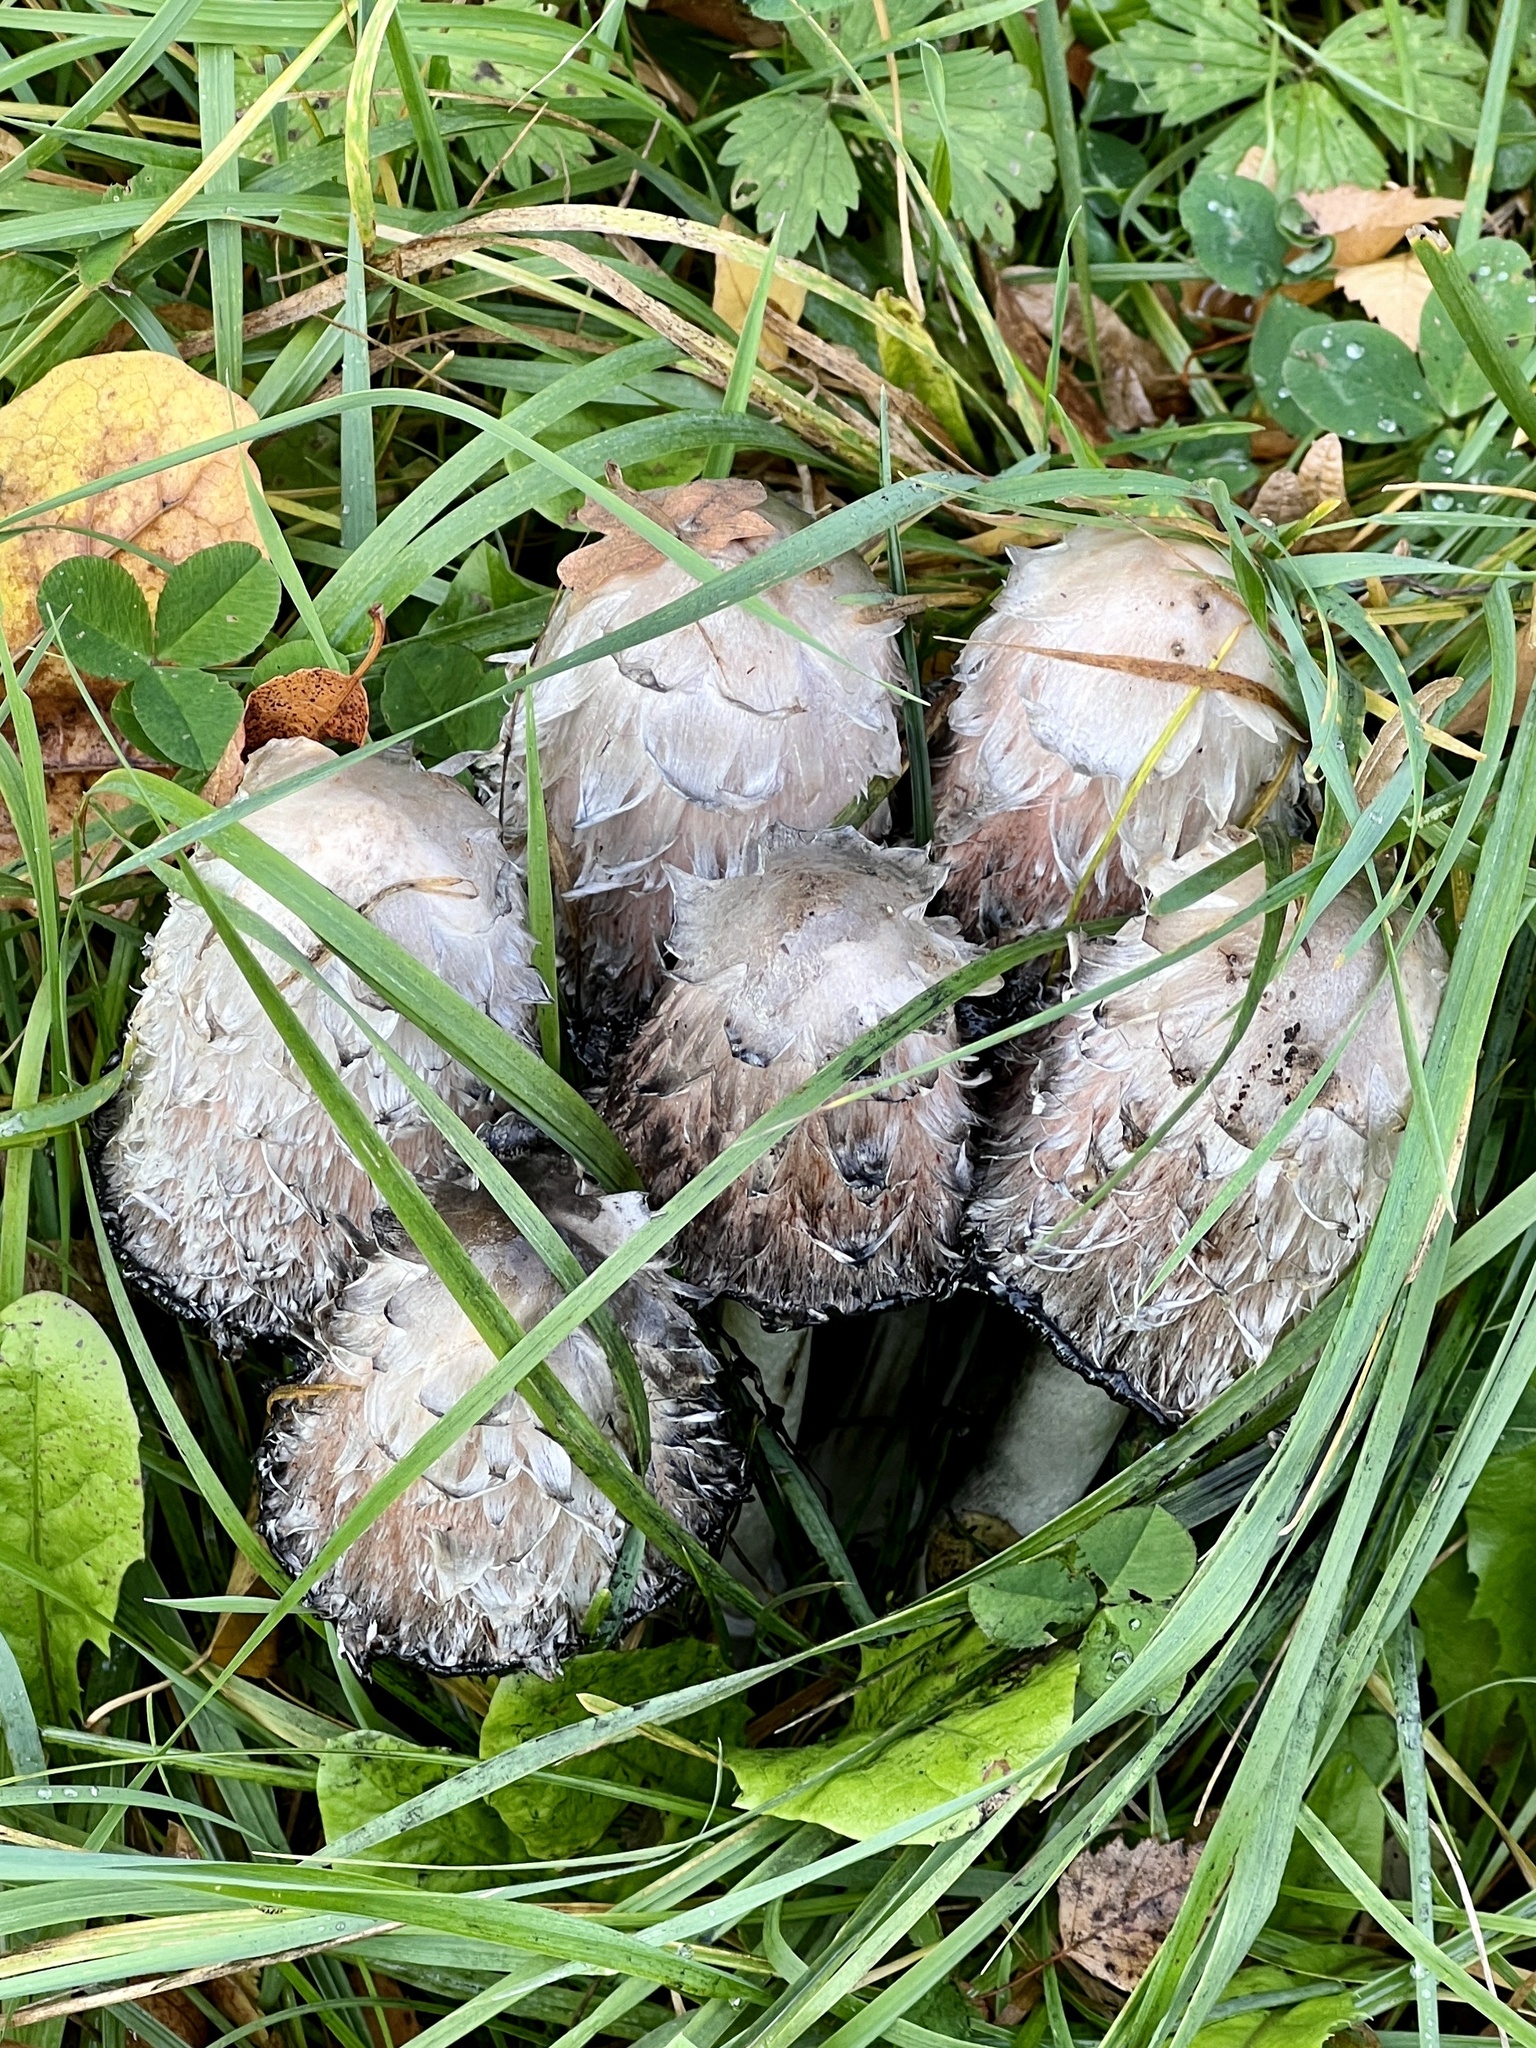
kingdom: Fungi
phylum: Basidiomycota
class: Agaricomycetes
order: Agaricales
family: Agaricaceae
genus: Coprinus
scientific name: Coprinus comatus
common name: Lawyer's wig
